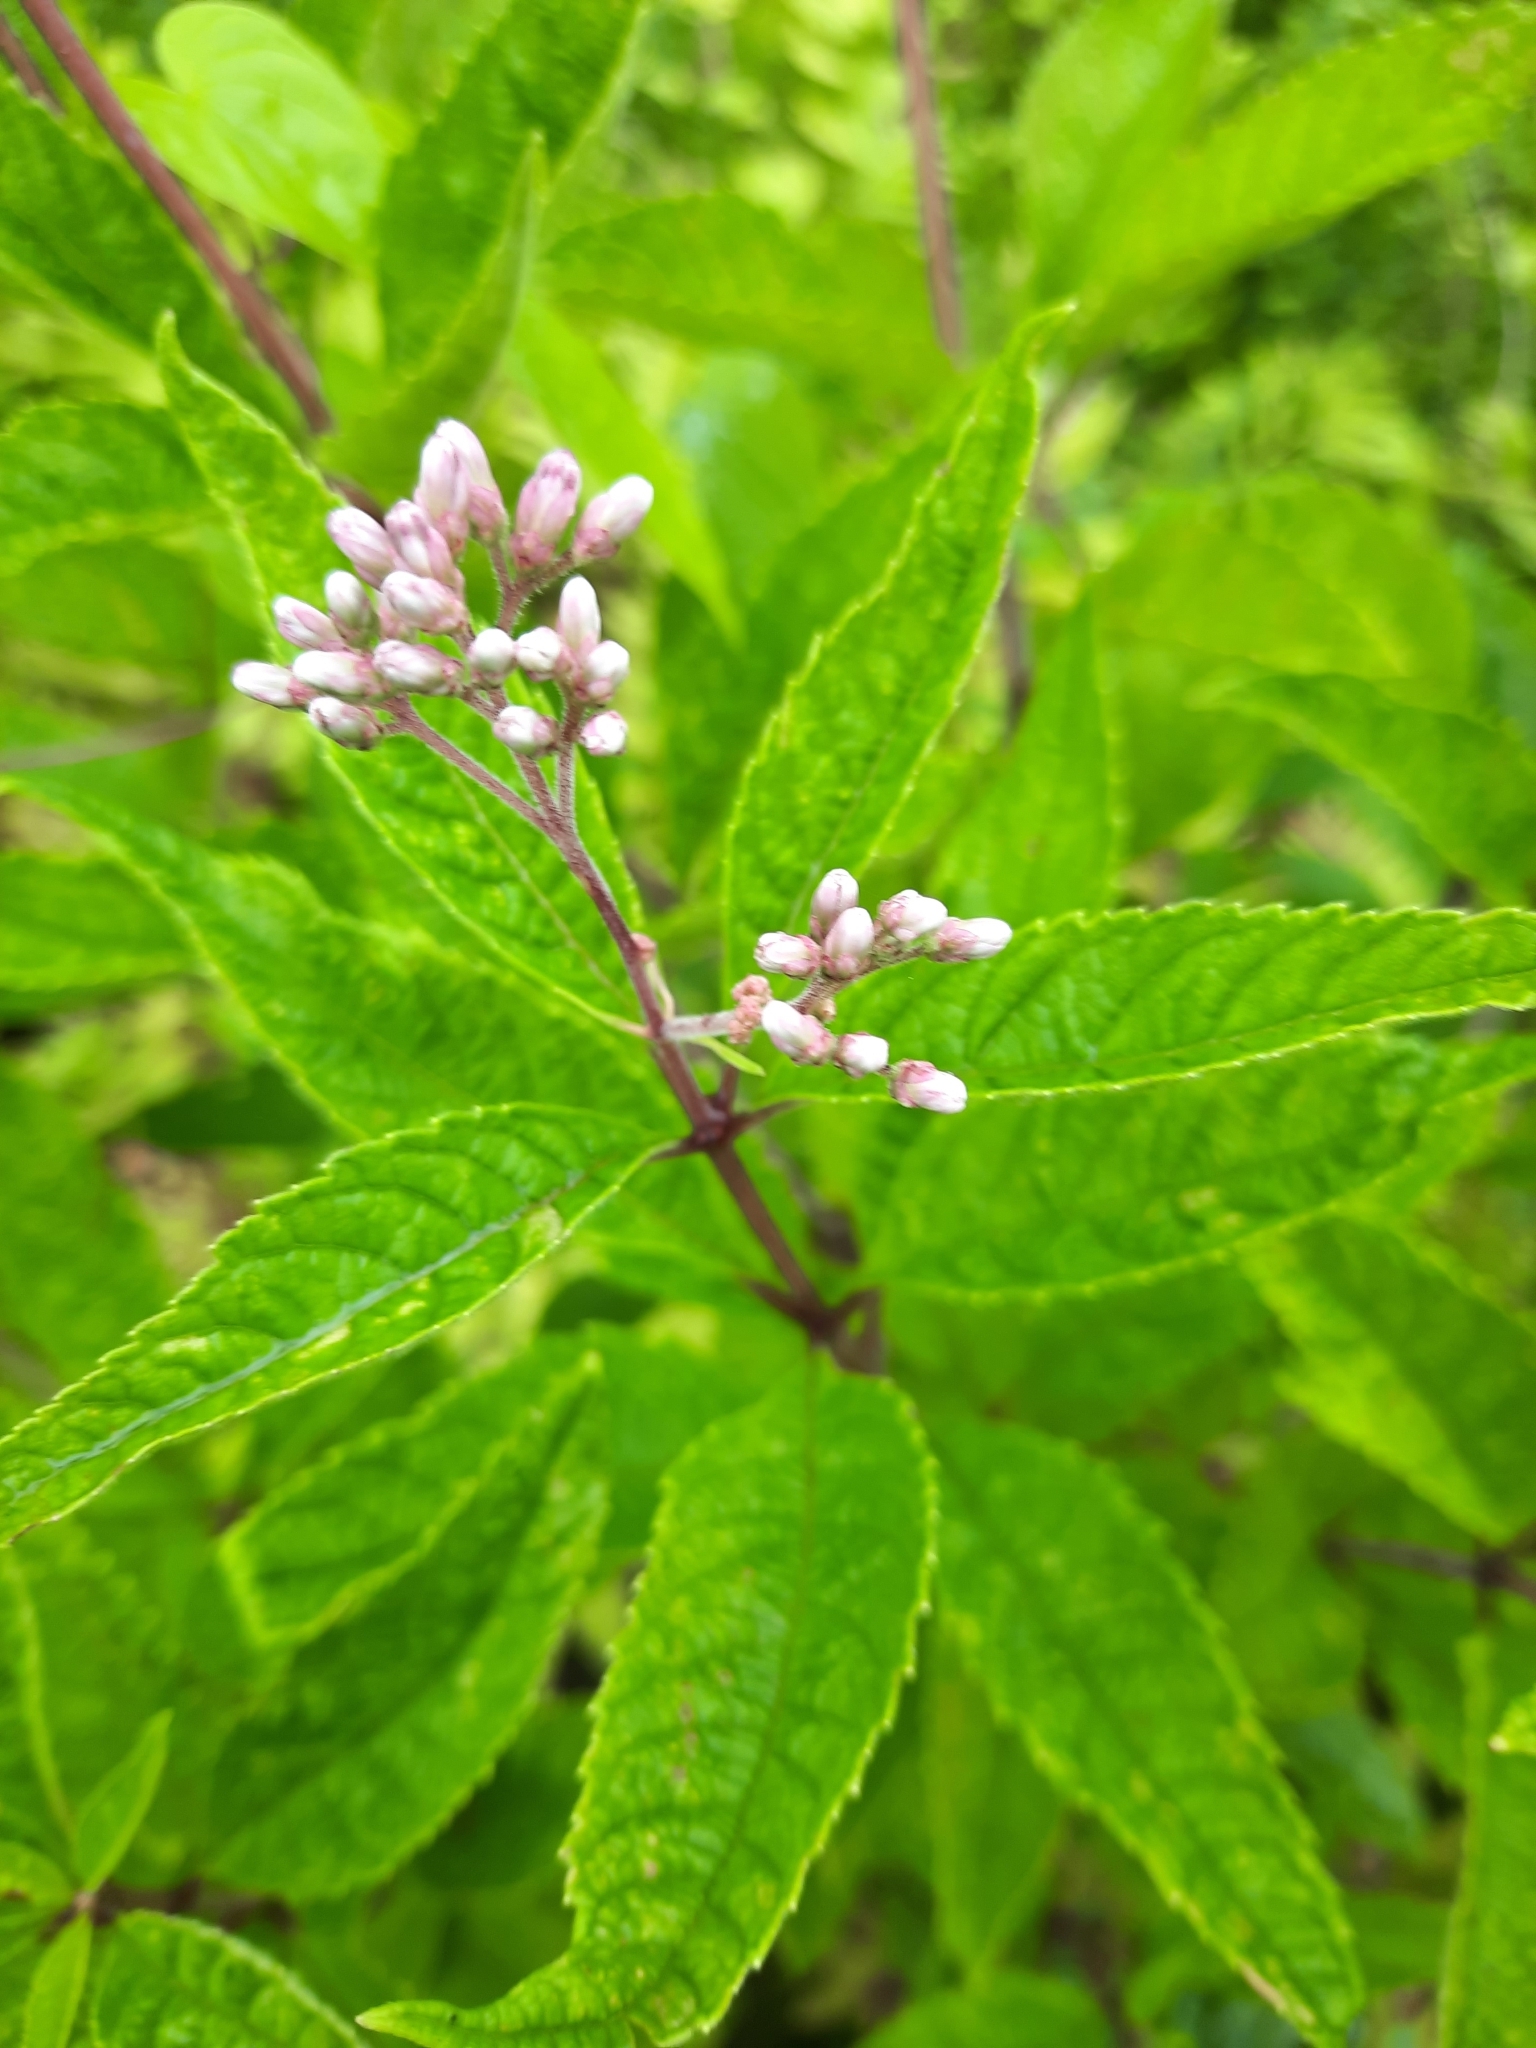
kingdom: Plantae
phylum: Tracheophyta
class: Magnoliopsida
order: Asterales
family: Asteraceae
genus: Eutrochium
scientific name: Eutrochium maculatum
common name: Spotted joe pye weed
